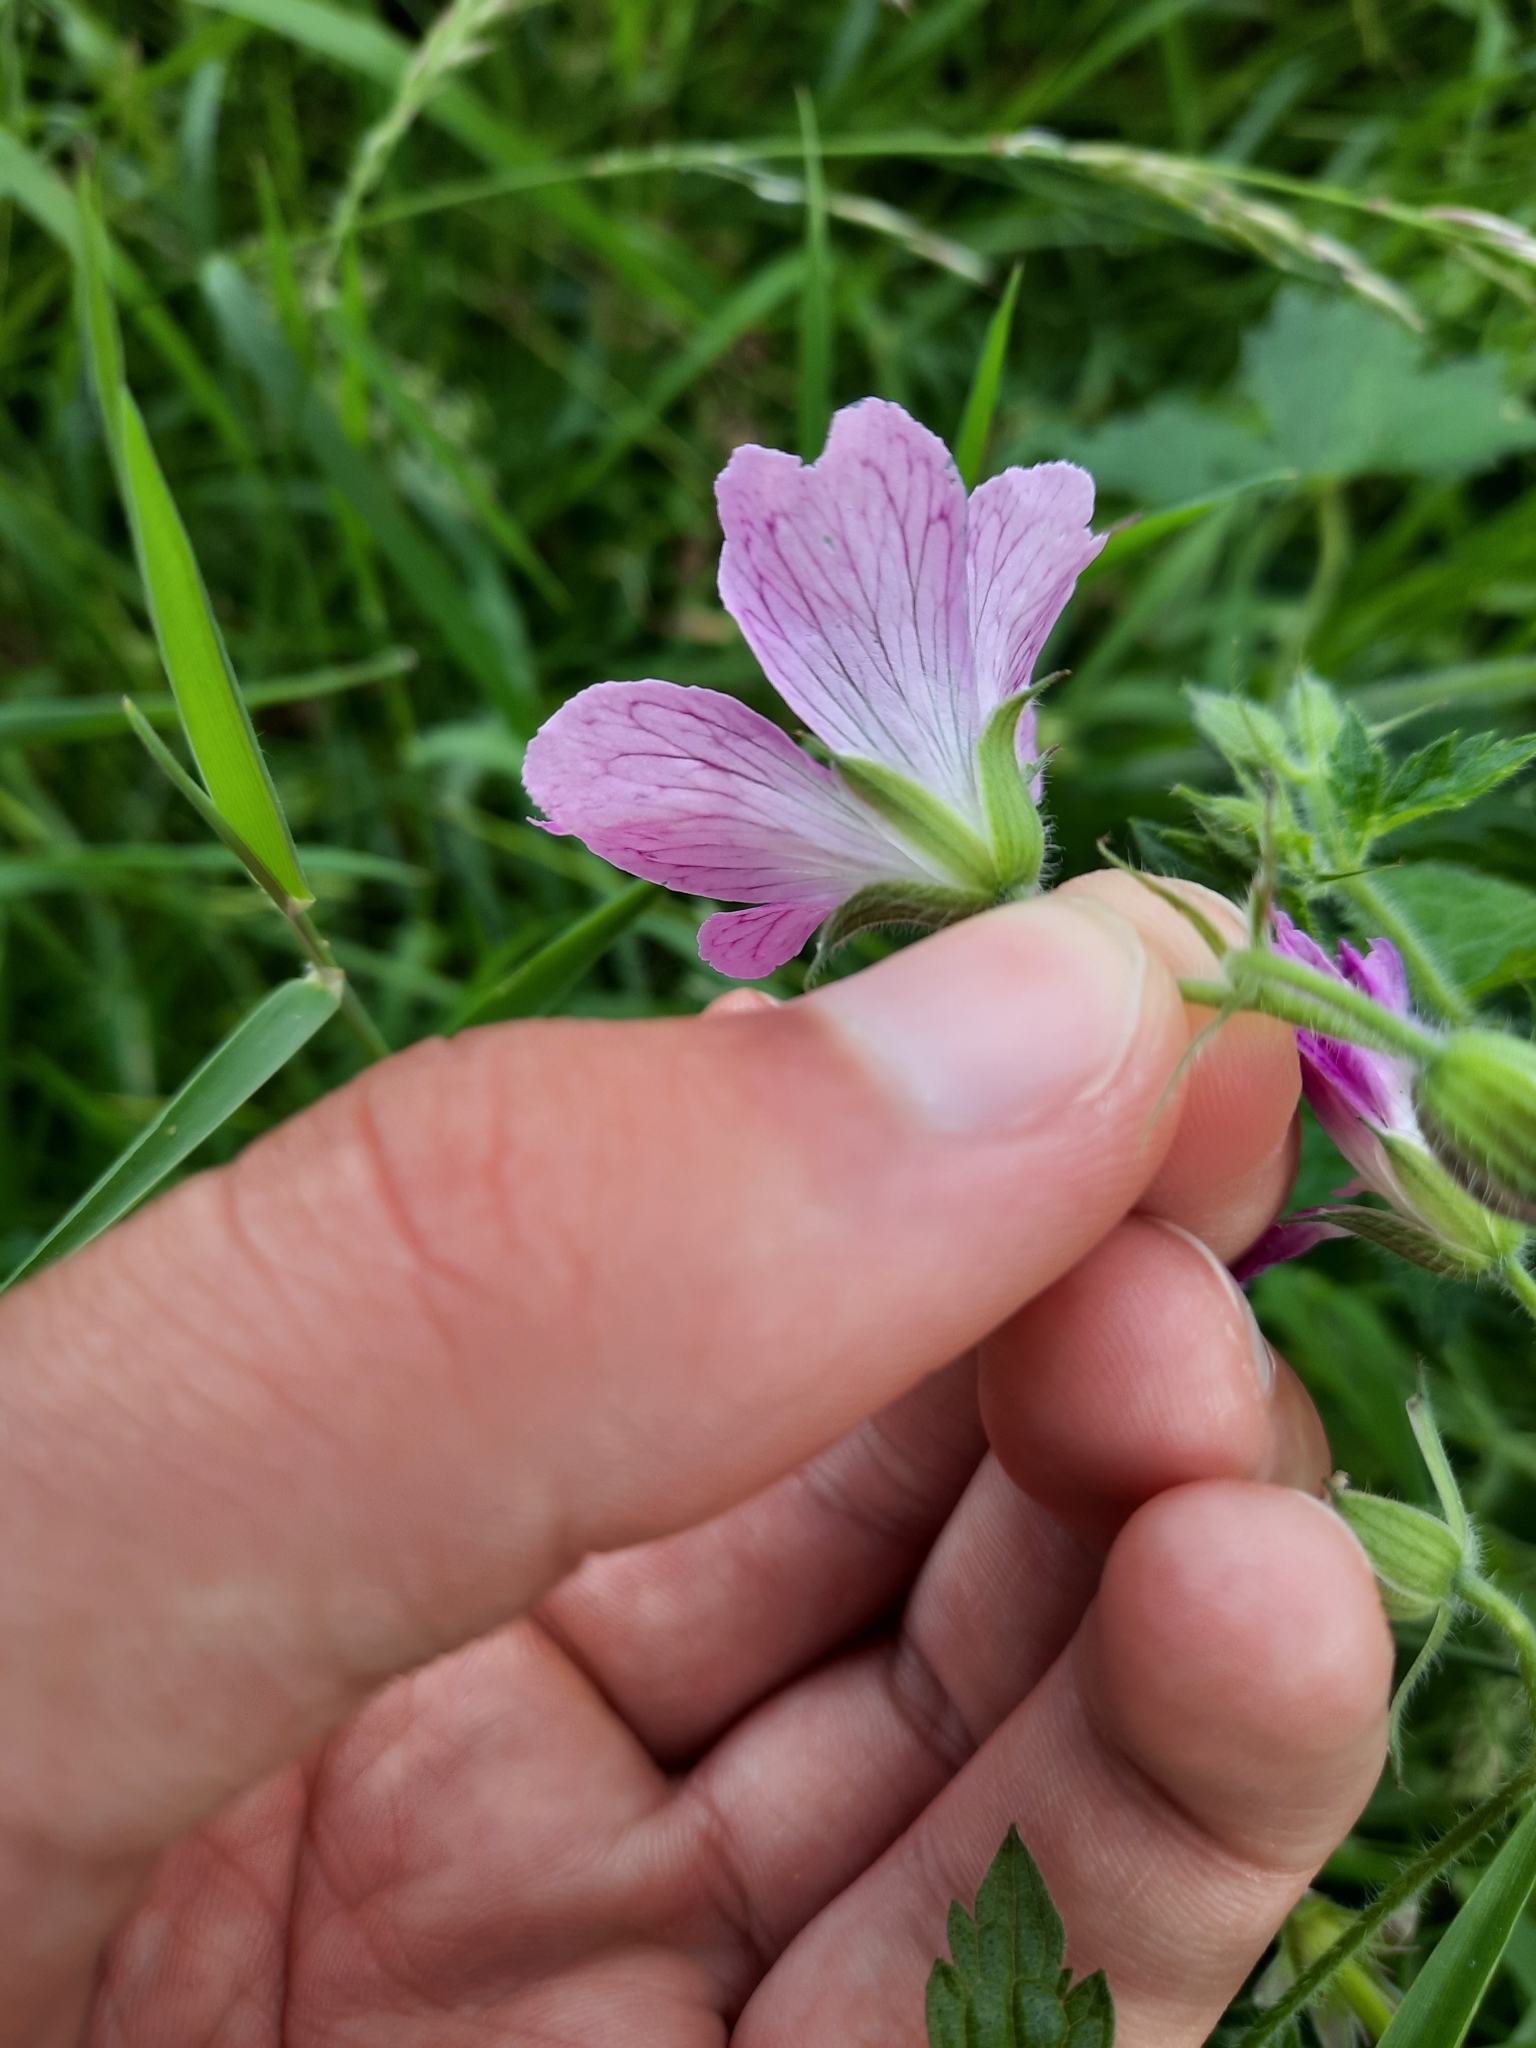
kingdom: Plantae
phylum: Tracheophyta
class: Magnoliopsida
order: Geraniales
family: Geraniaceae
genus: Geranium
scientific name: Geranium oxonianum
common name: Druce's crane's-bill
